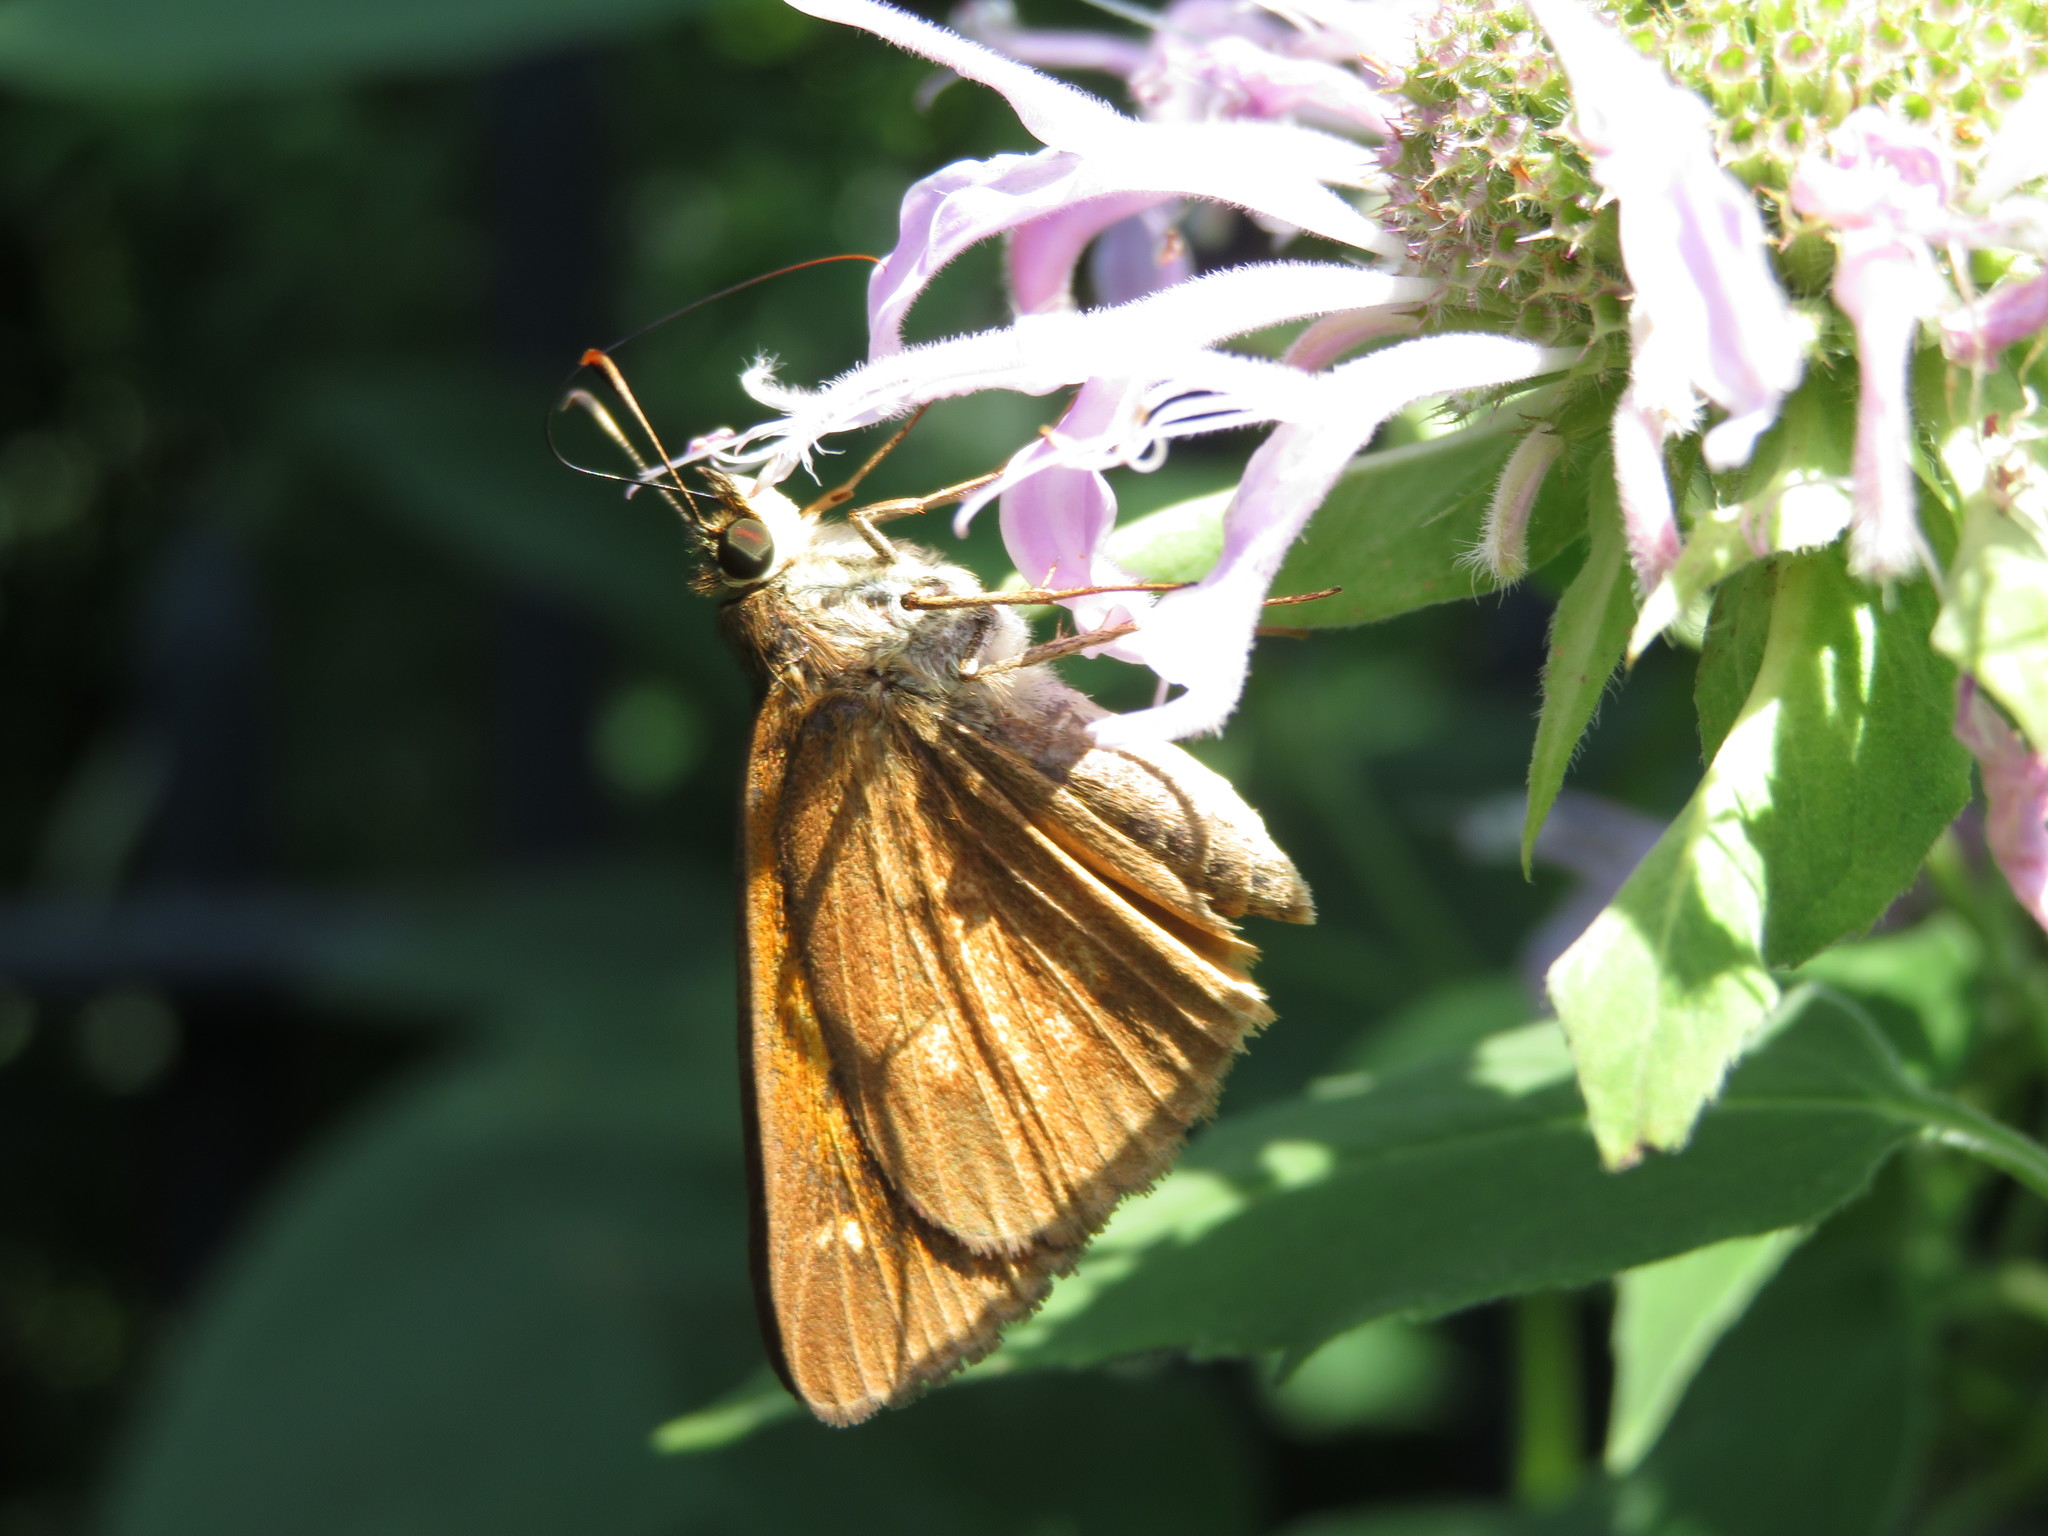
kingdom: Animalia
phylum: Arthropoda
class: Insecta
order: Lepidoptera
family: Hesperiidae
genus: Poanes
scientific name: Poanes viator
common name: Broad-winged skipper
